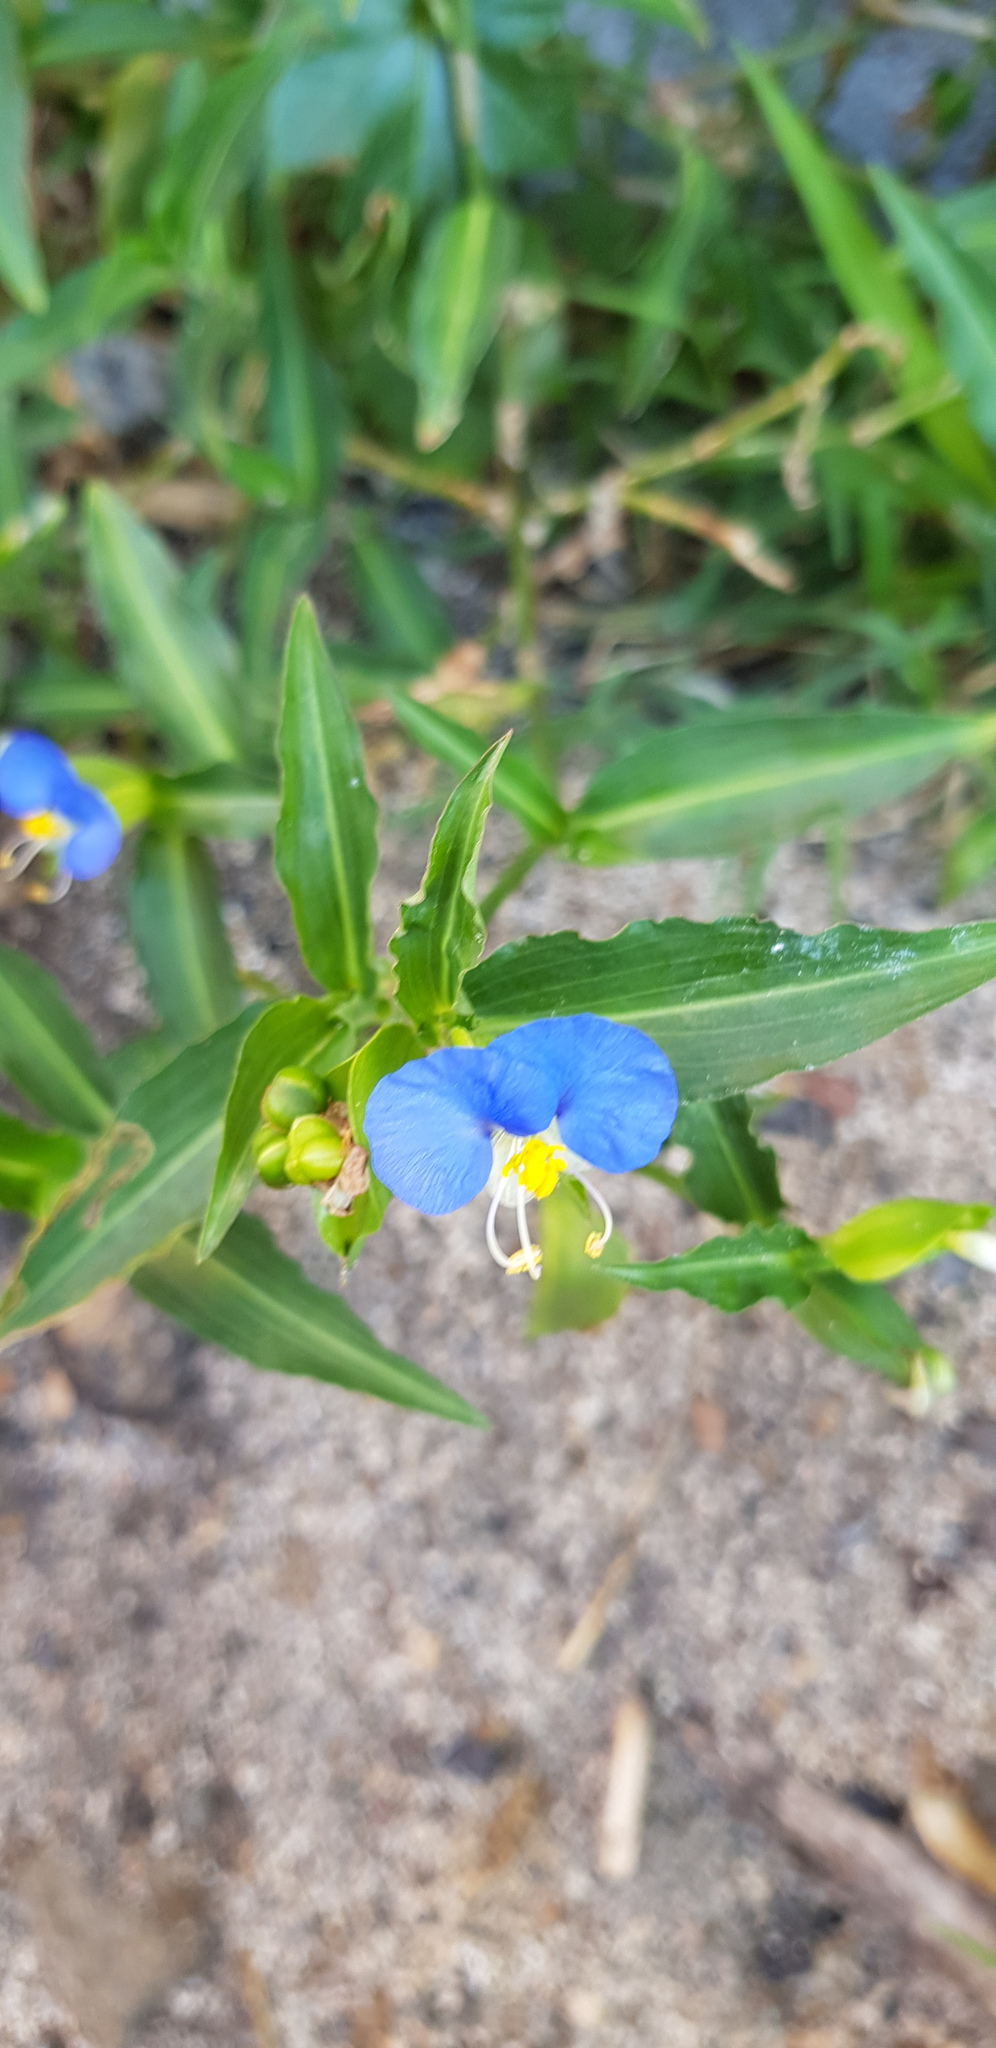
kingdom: Plantae
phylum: Tracheophyta
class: Liliopsida
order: Commelinales
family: Commelinaceae
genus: Commelina
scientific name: Commelina erecta
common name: Blousel blommetjie
